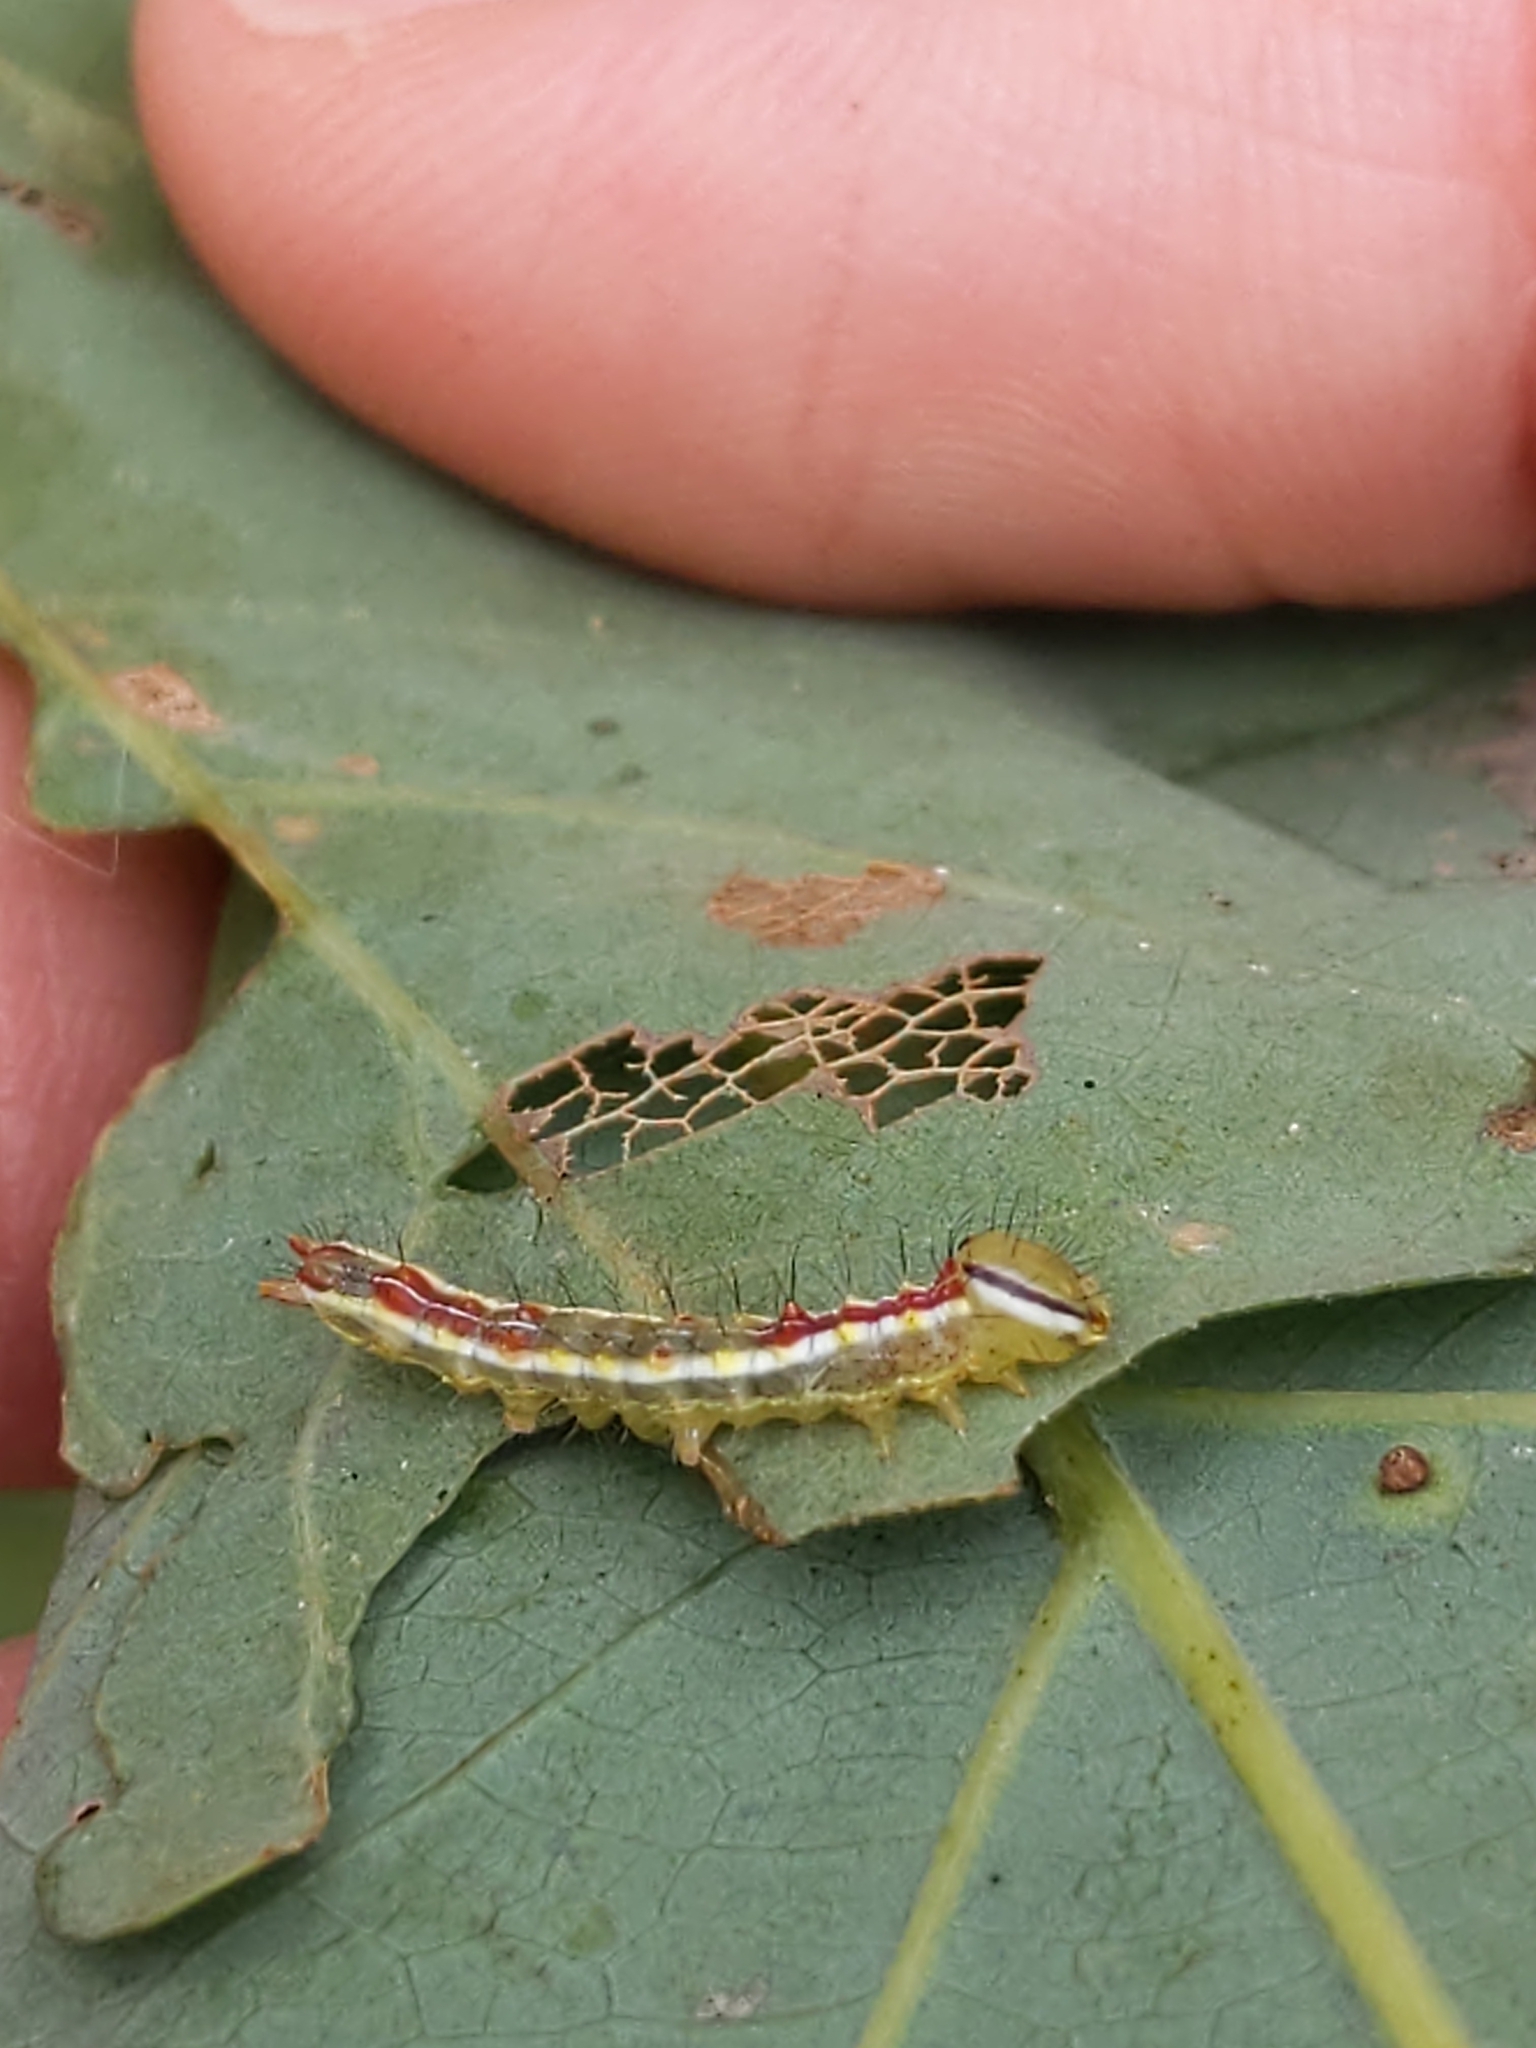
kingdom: Animalia
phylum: Arthropoda
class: Insecta
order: Lepidoptera
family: Notodontidae
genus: Lochmaeus
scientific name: Lochmaeus manteo
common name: Variable oakleaf caterpillar moth
